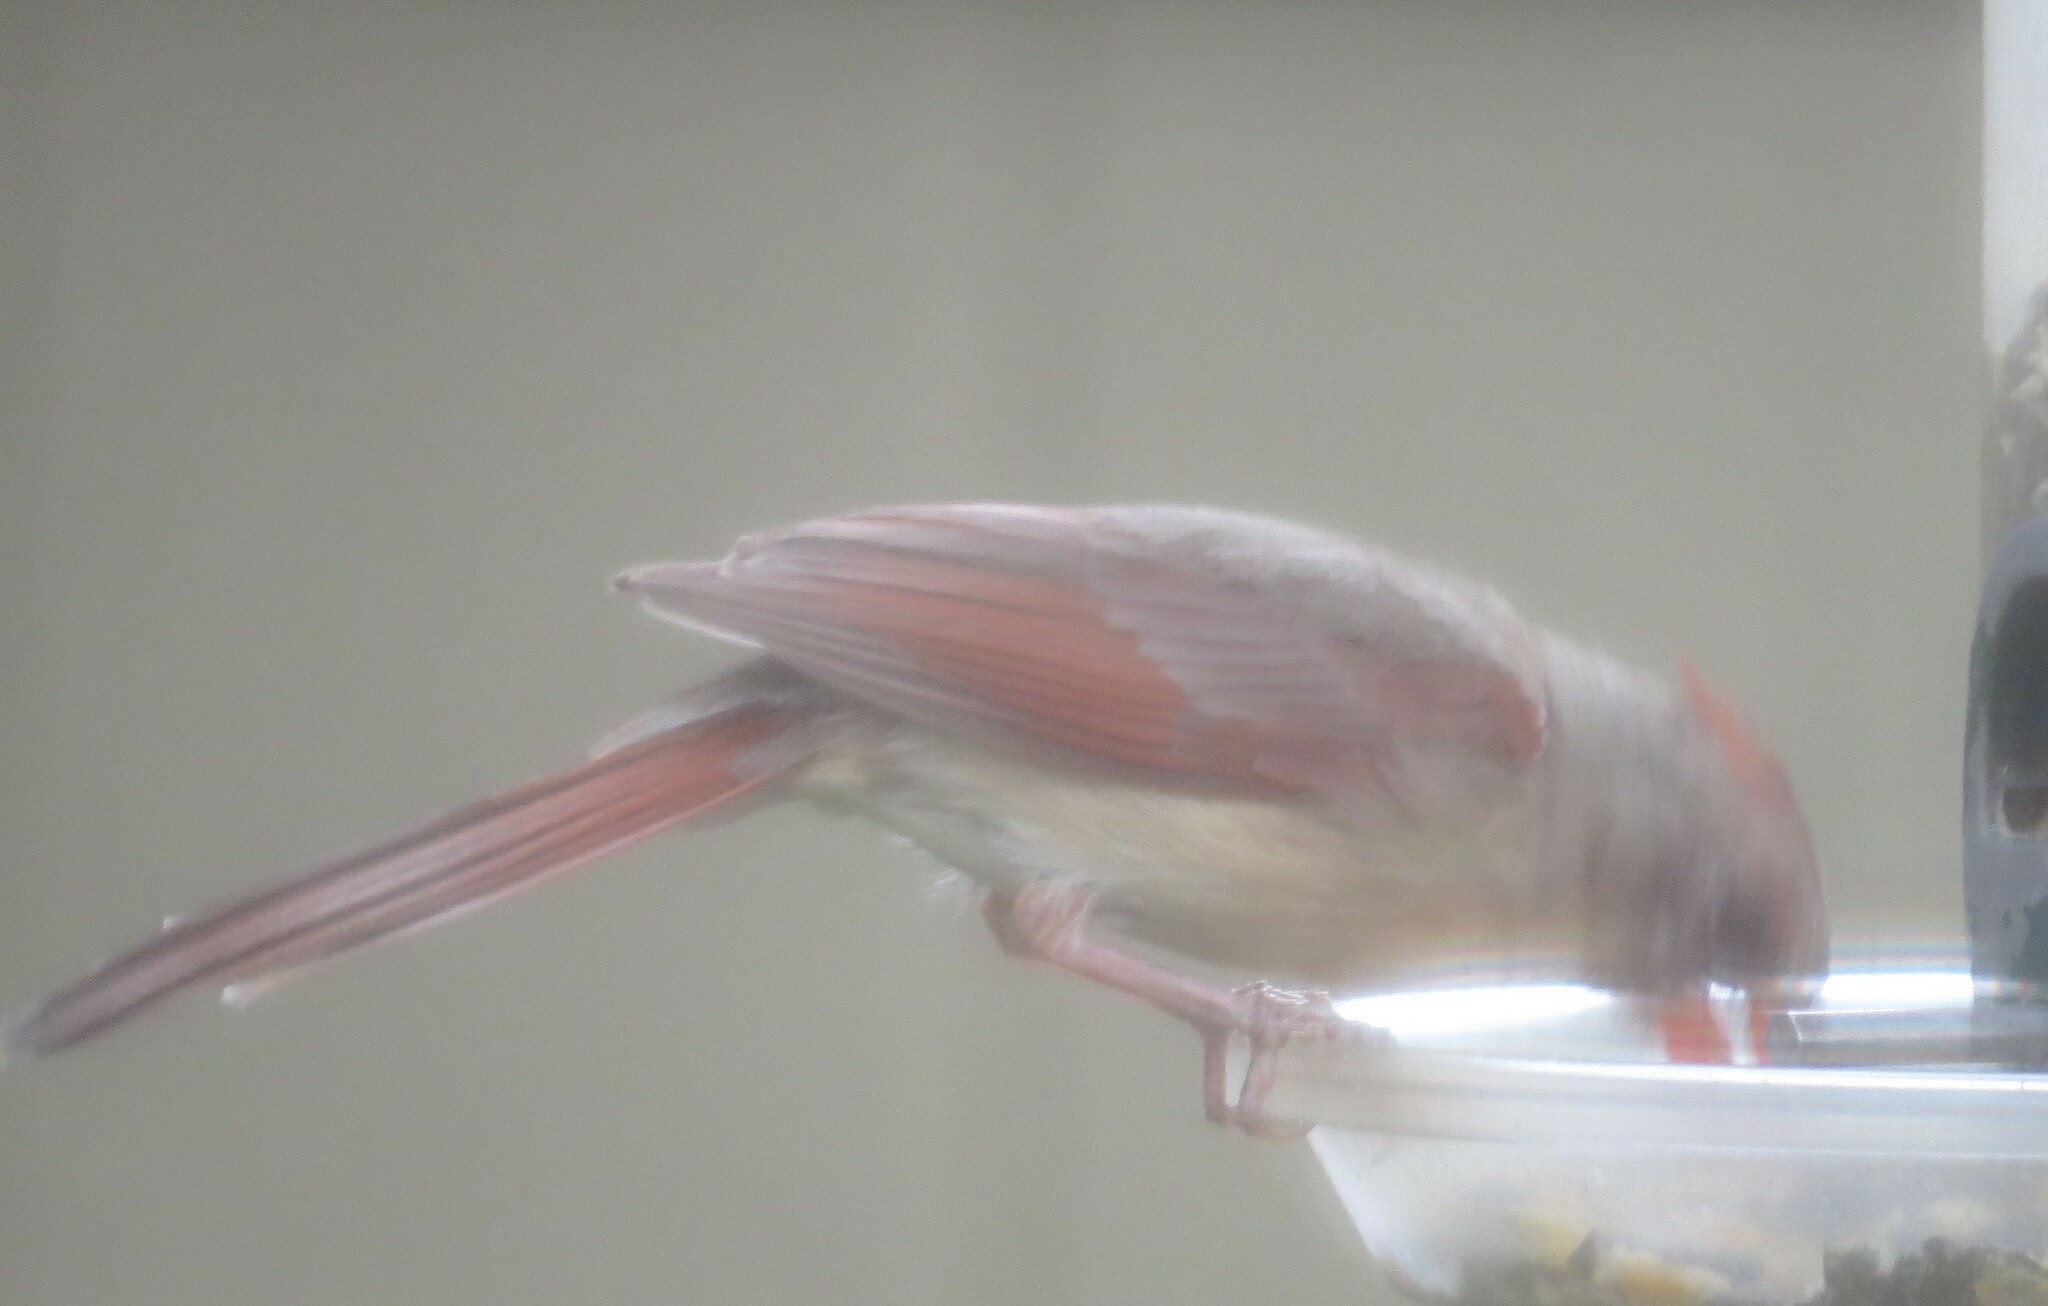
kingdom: Animalia
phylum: Chordata
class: Aves
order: Passeriformes
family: Cardinalidae
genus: Cardinalis
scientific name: Cardinalis cardinalis
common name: Northern cardinal
